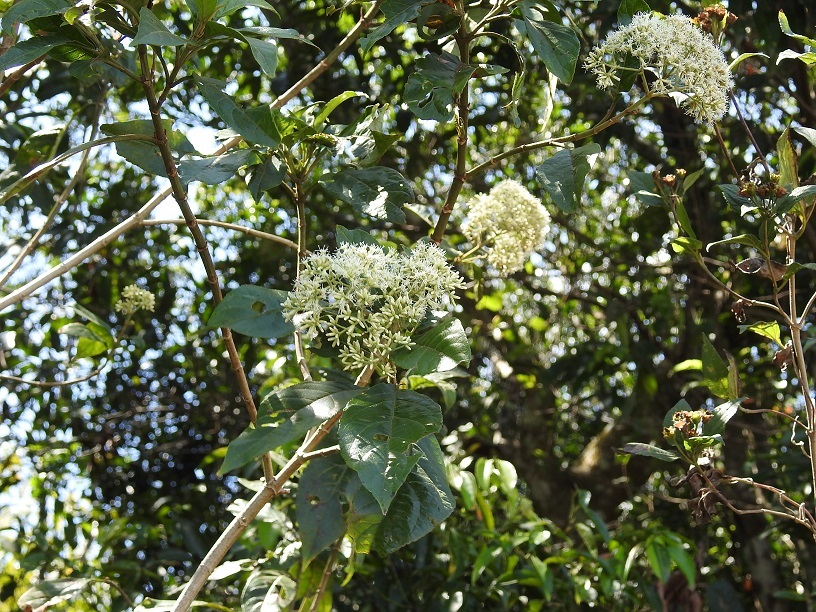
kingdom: Plantae
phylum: Tracheophyta
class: Magnoliopsida
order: Asterales
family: Asteraceae
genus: Koanophyllon
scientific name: Koanophyllon pittieri
